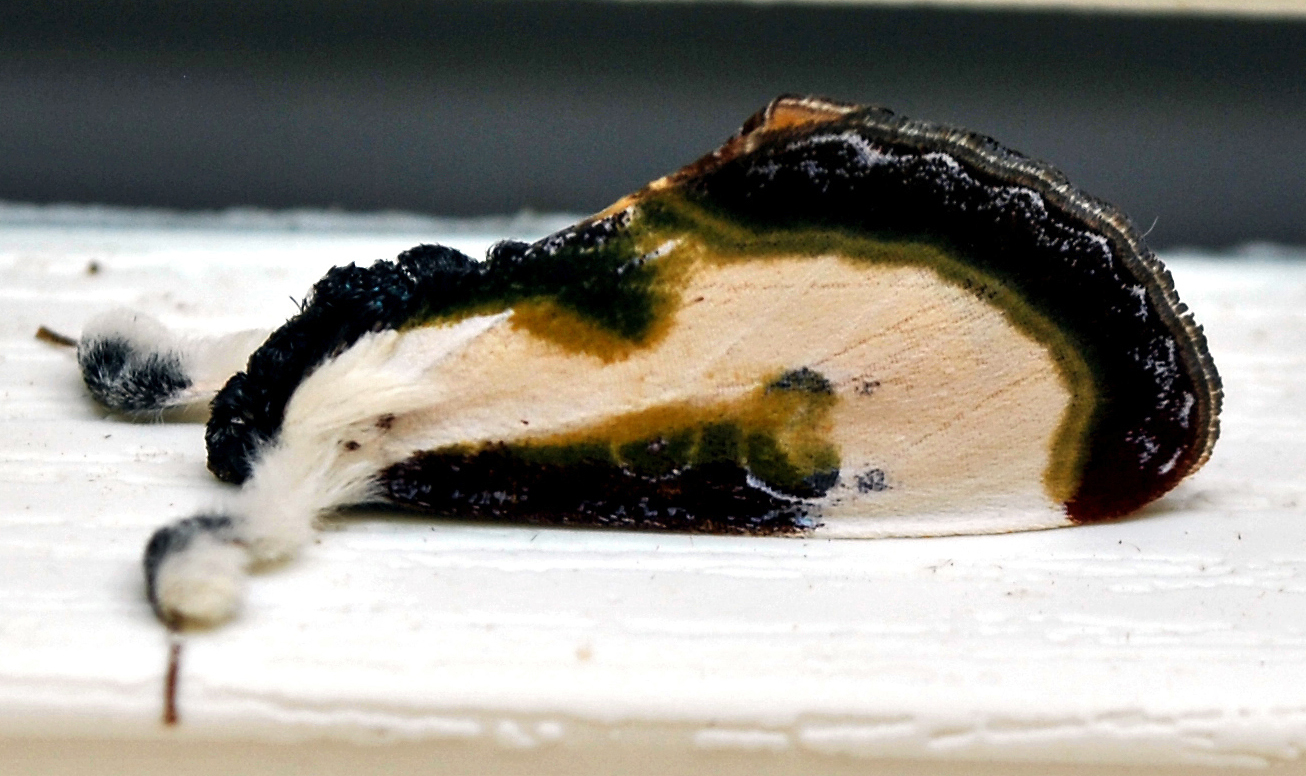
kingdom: Animalia
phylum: Arthropoda
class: Insecta
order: Lepidoptera
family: Noctuidae
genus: Eudryas
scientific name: Eudryas grata
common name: Beautiful wood-nymph
